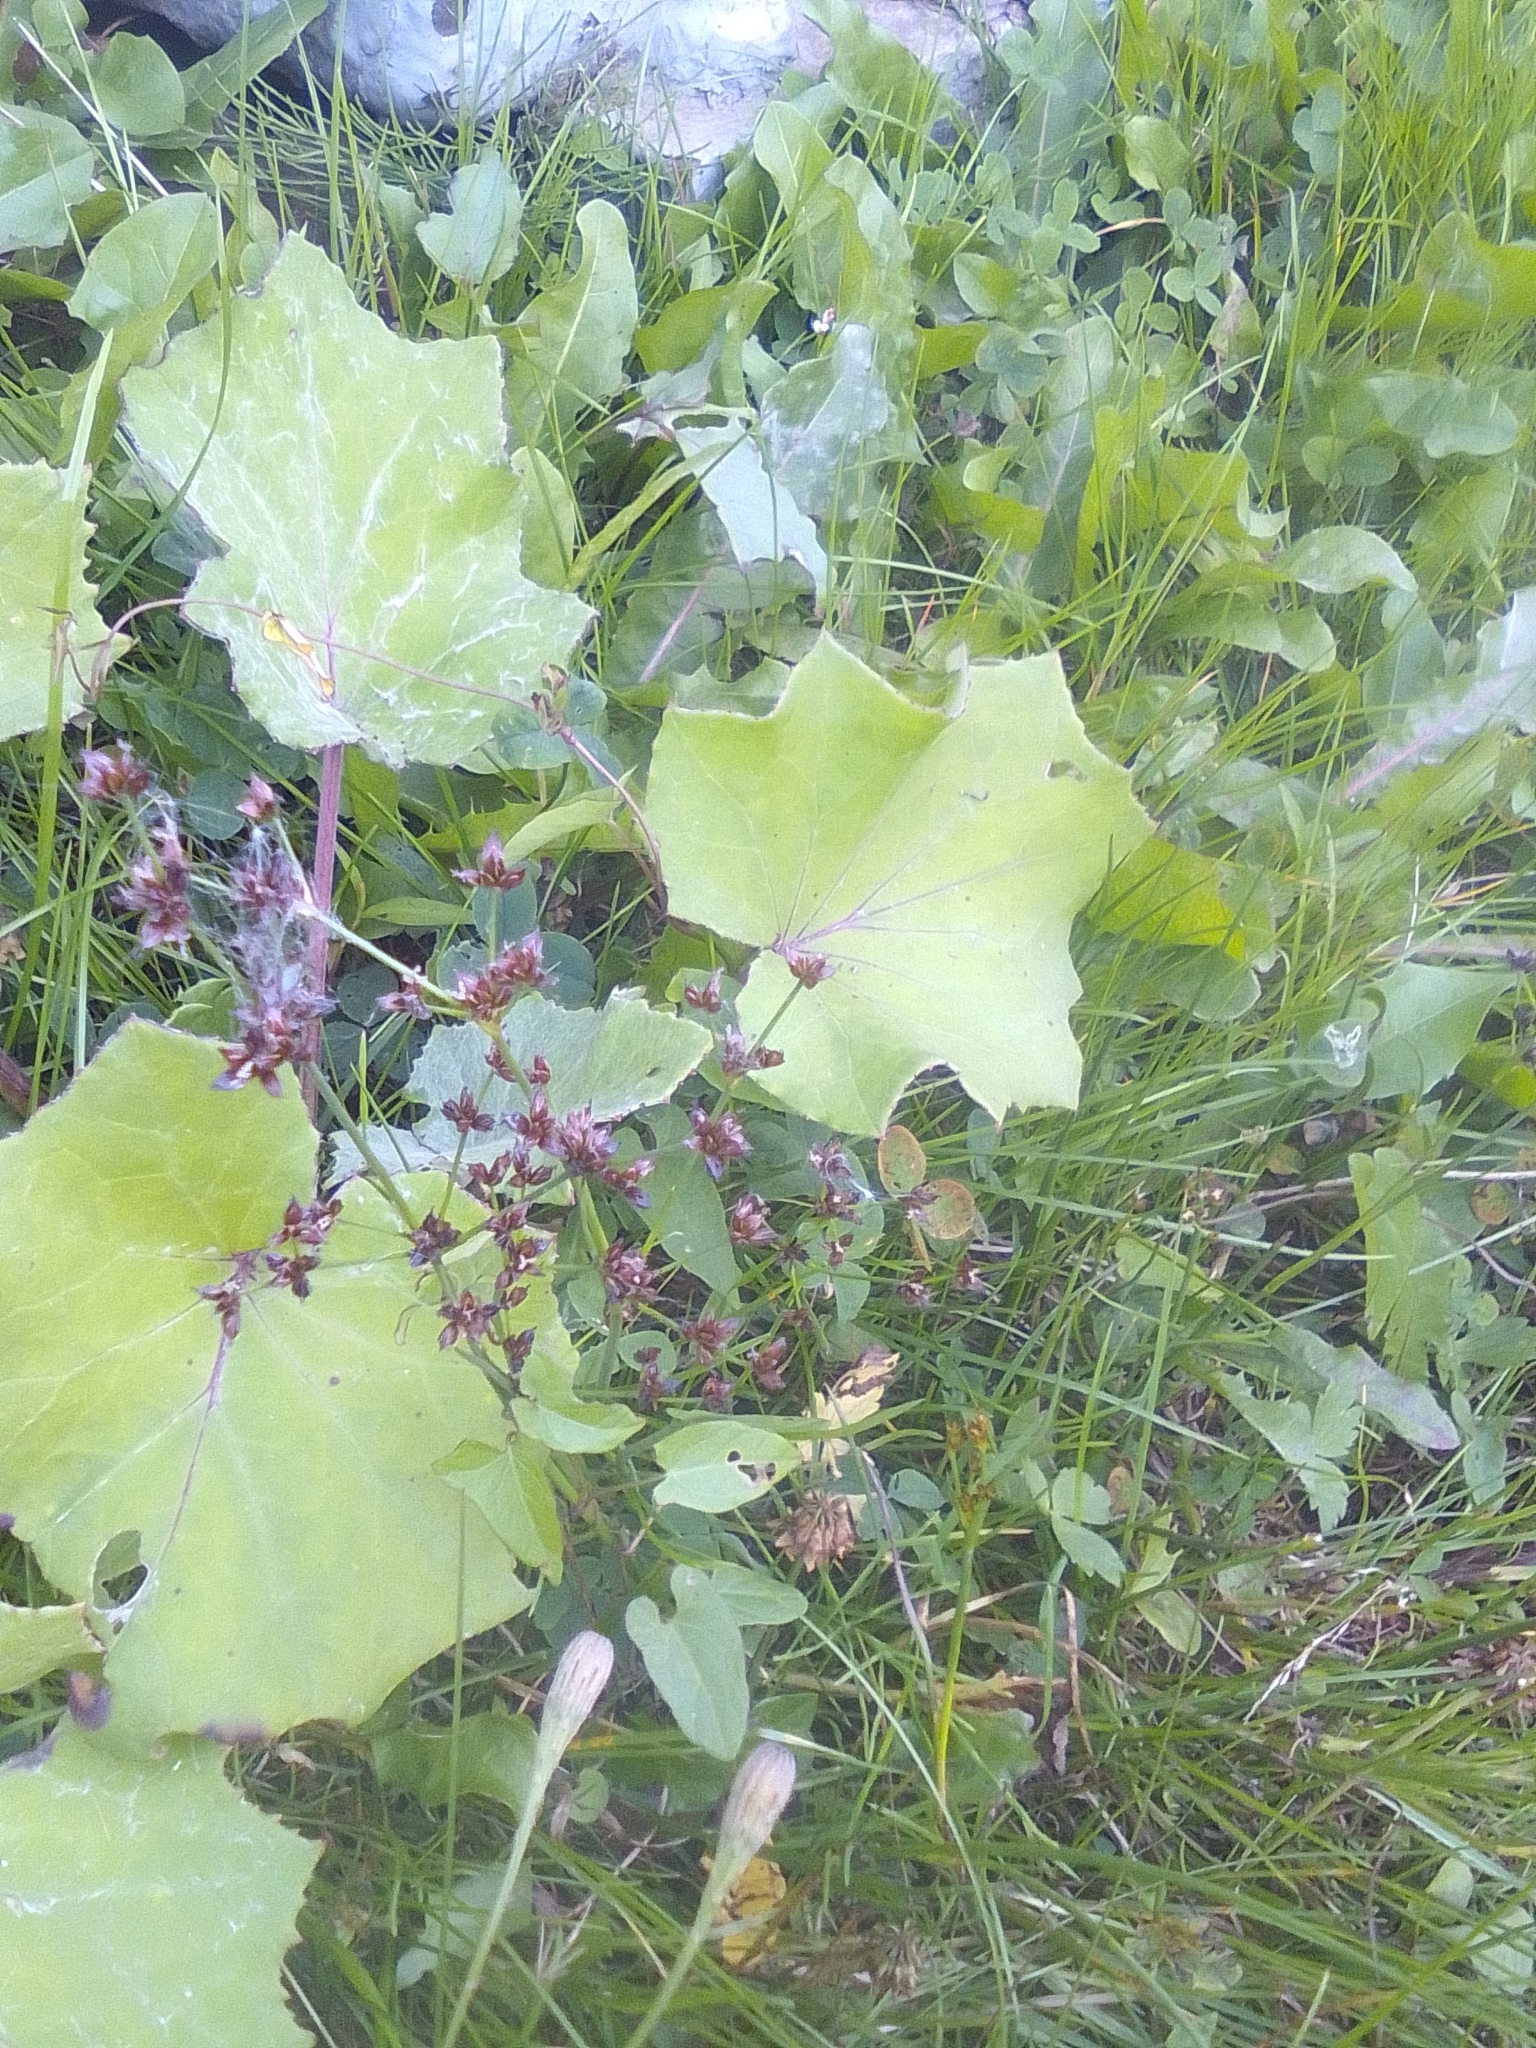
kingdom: Plantae
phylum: Tracheophyta
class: Liliopsida
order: Poales
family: Juncaceae
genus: Juncus
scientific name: Juncus articulatus
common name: Jointed rush
